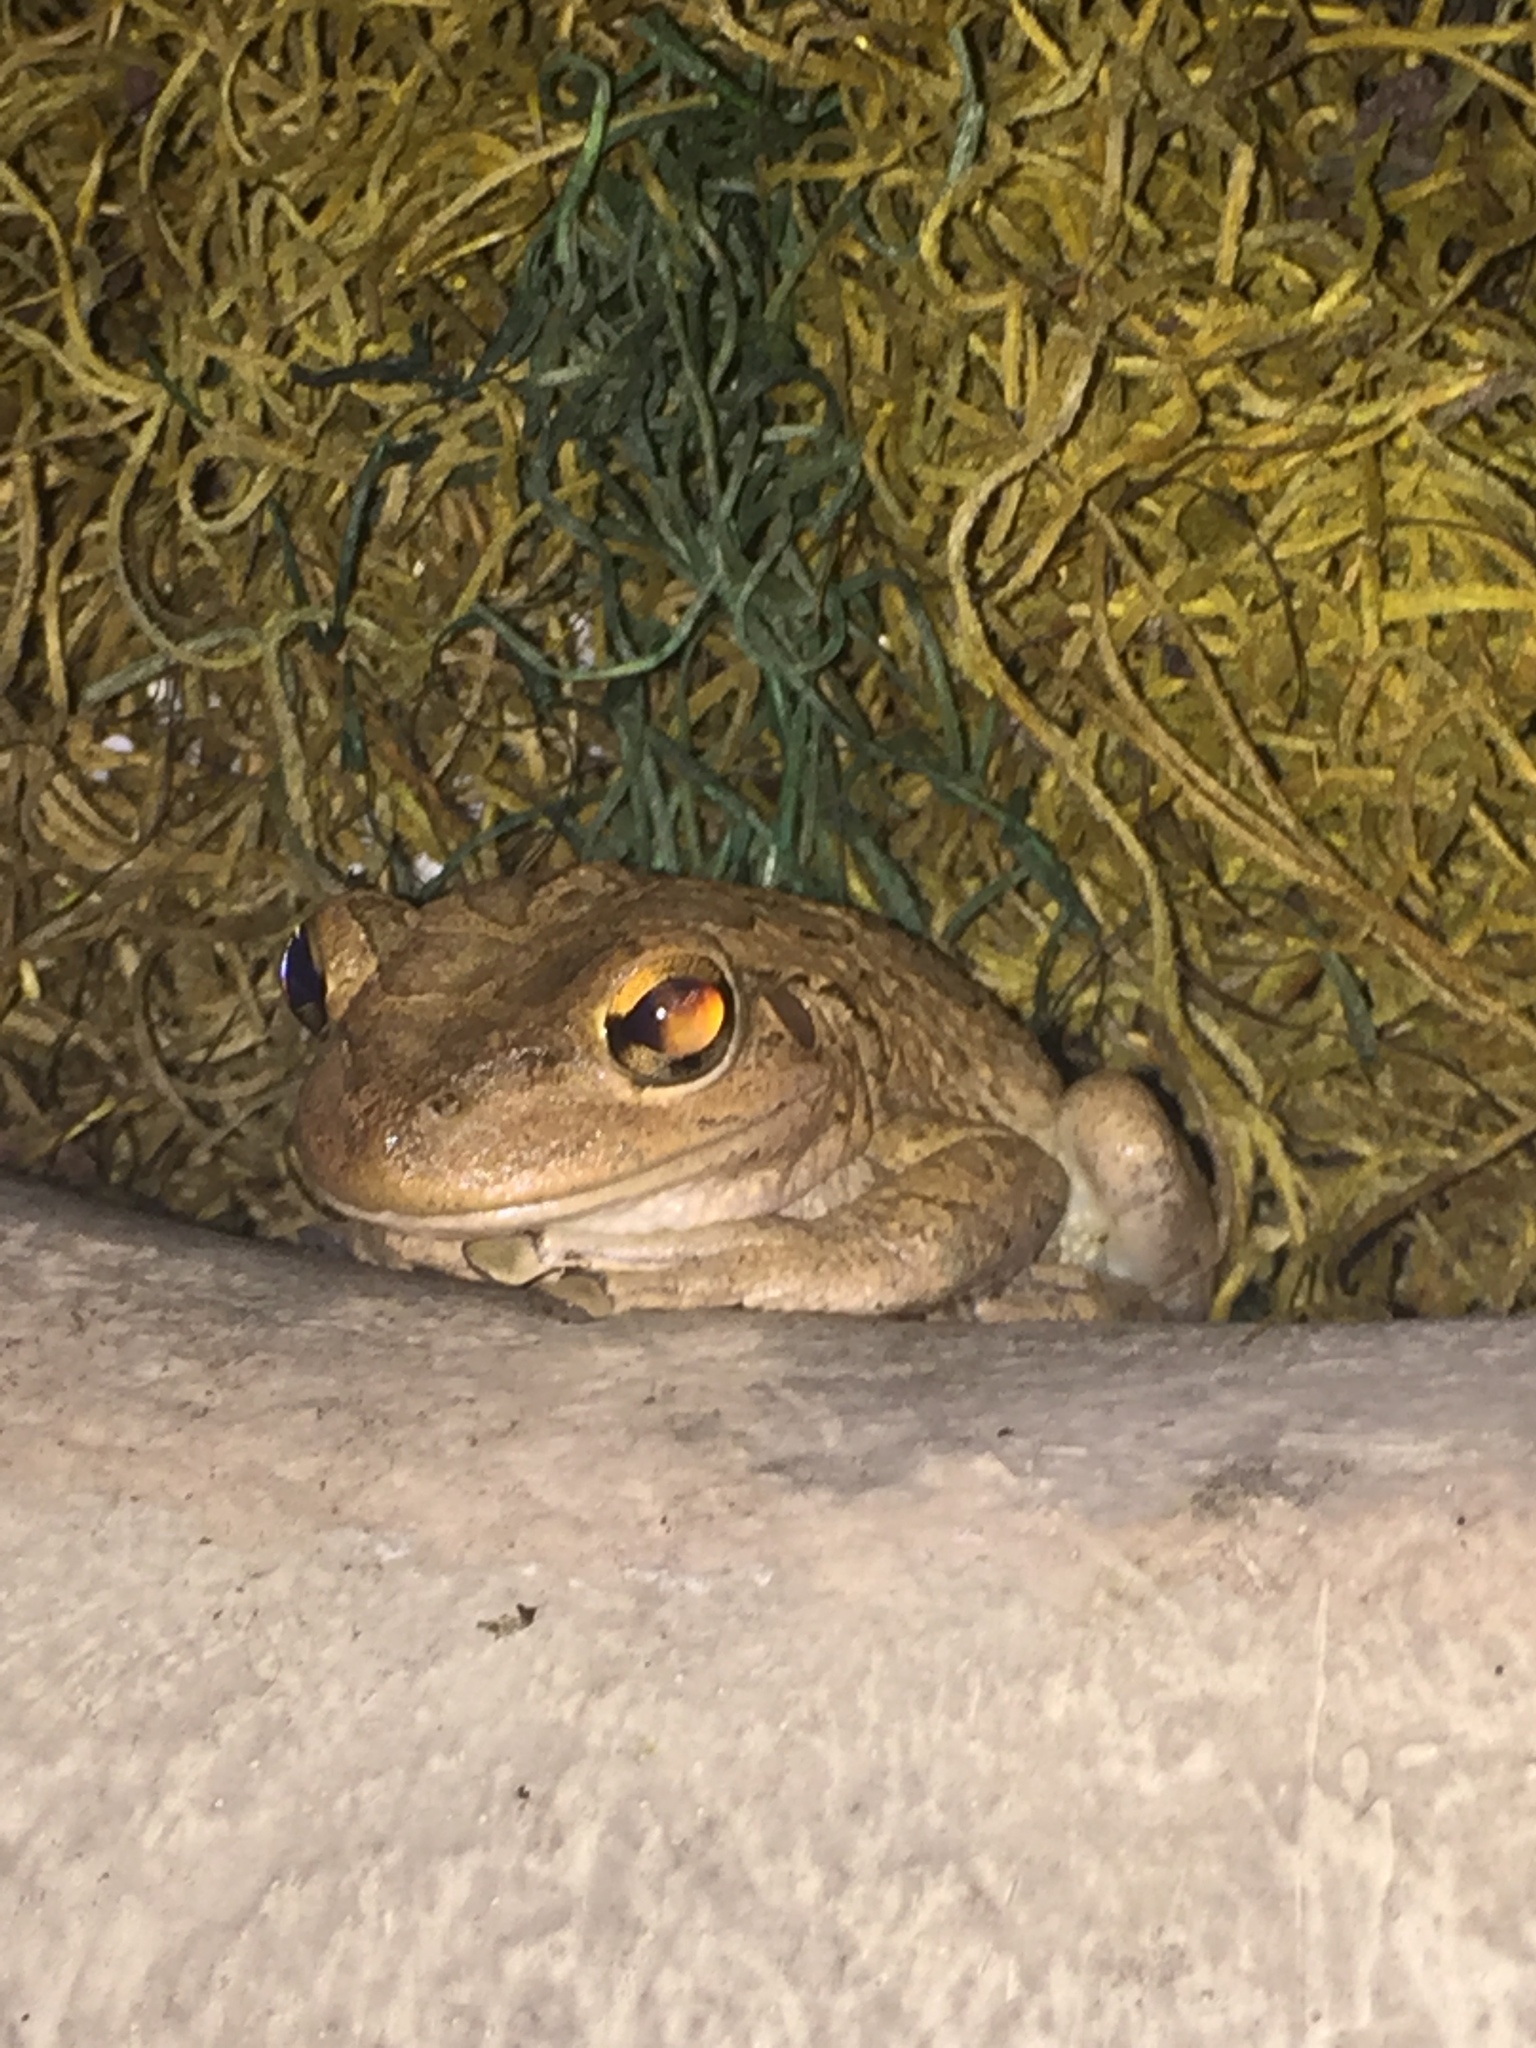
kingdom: Animalia
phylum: Chordata
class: Amphibia
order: Anura
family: Hylidae
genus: Osteopilus
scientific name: Osteopilus septentrionalis
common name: Cuban treefrog
